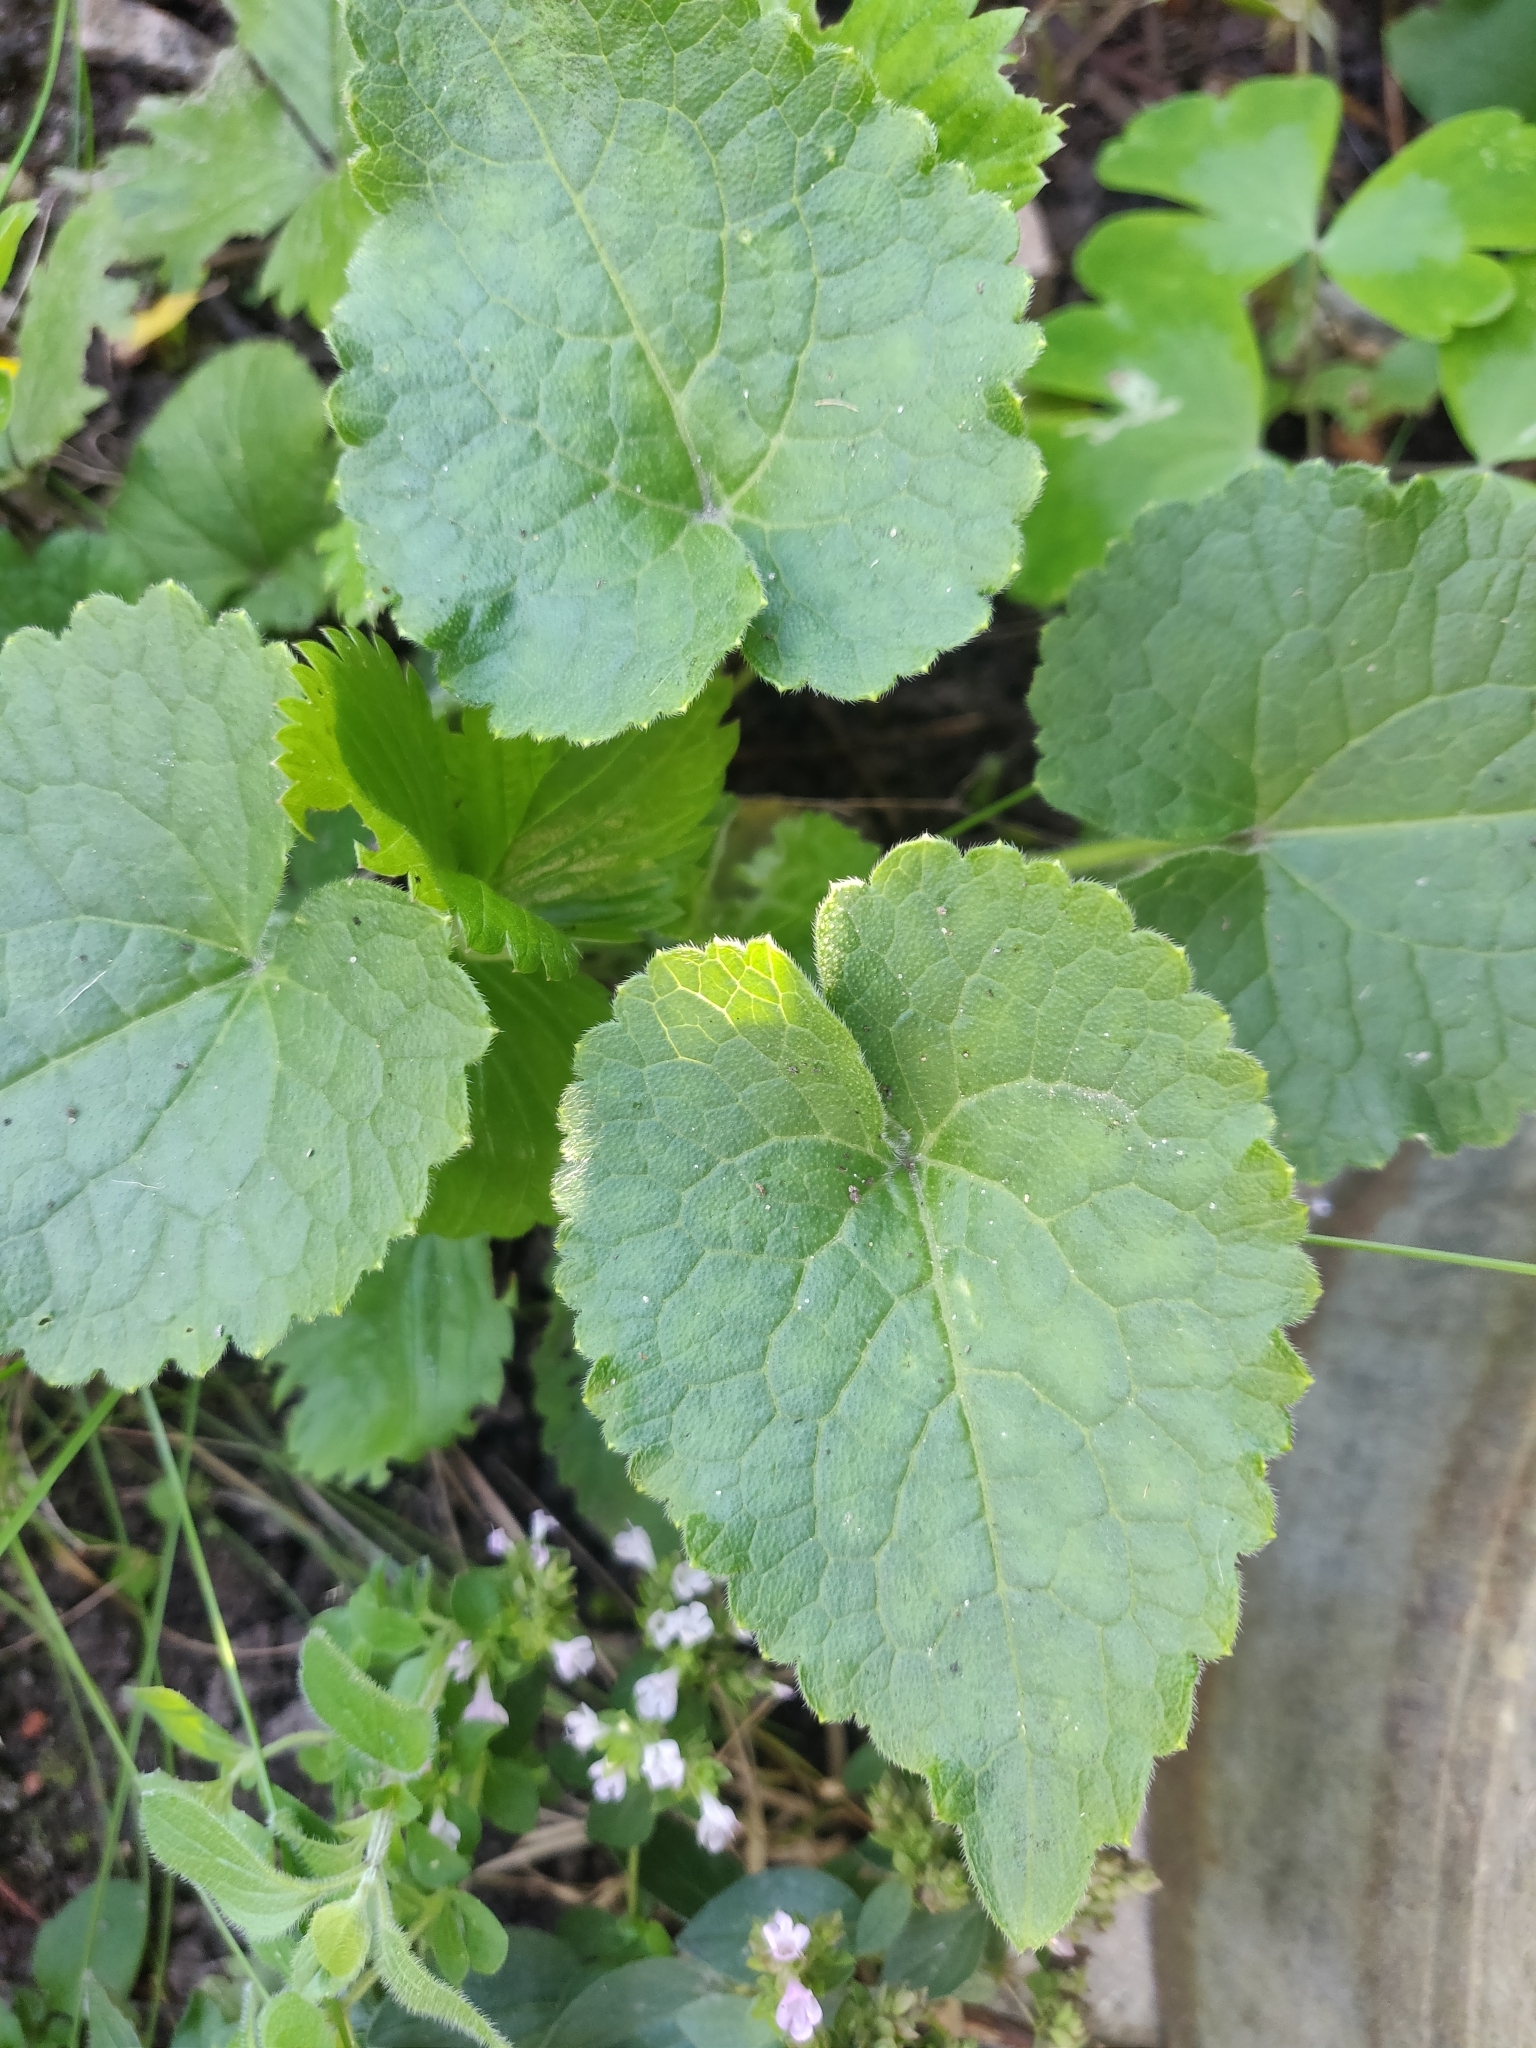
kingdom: Plantae
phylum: Tracheophyta
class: Magnoliopsida
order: Brassicales
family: Brassicaceae
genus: Lunaria
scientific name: Lunaria annua
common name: Honesty
